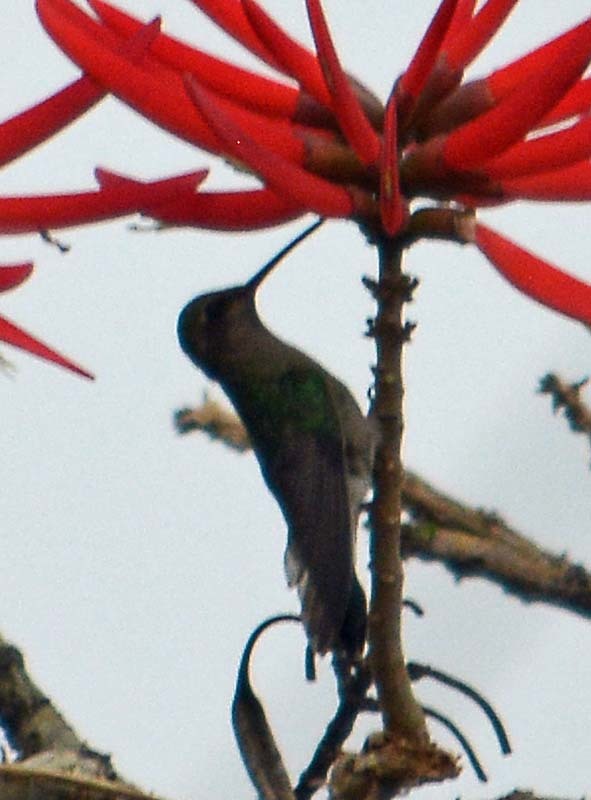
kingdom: Animalia
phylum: Chordata
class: Aves
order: Apodiformes
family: Trochilidae
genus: Cynanthus
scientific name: Cynanthus latirostris
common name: Broad-billed hummingbird
